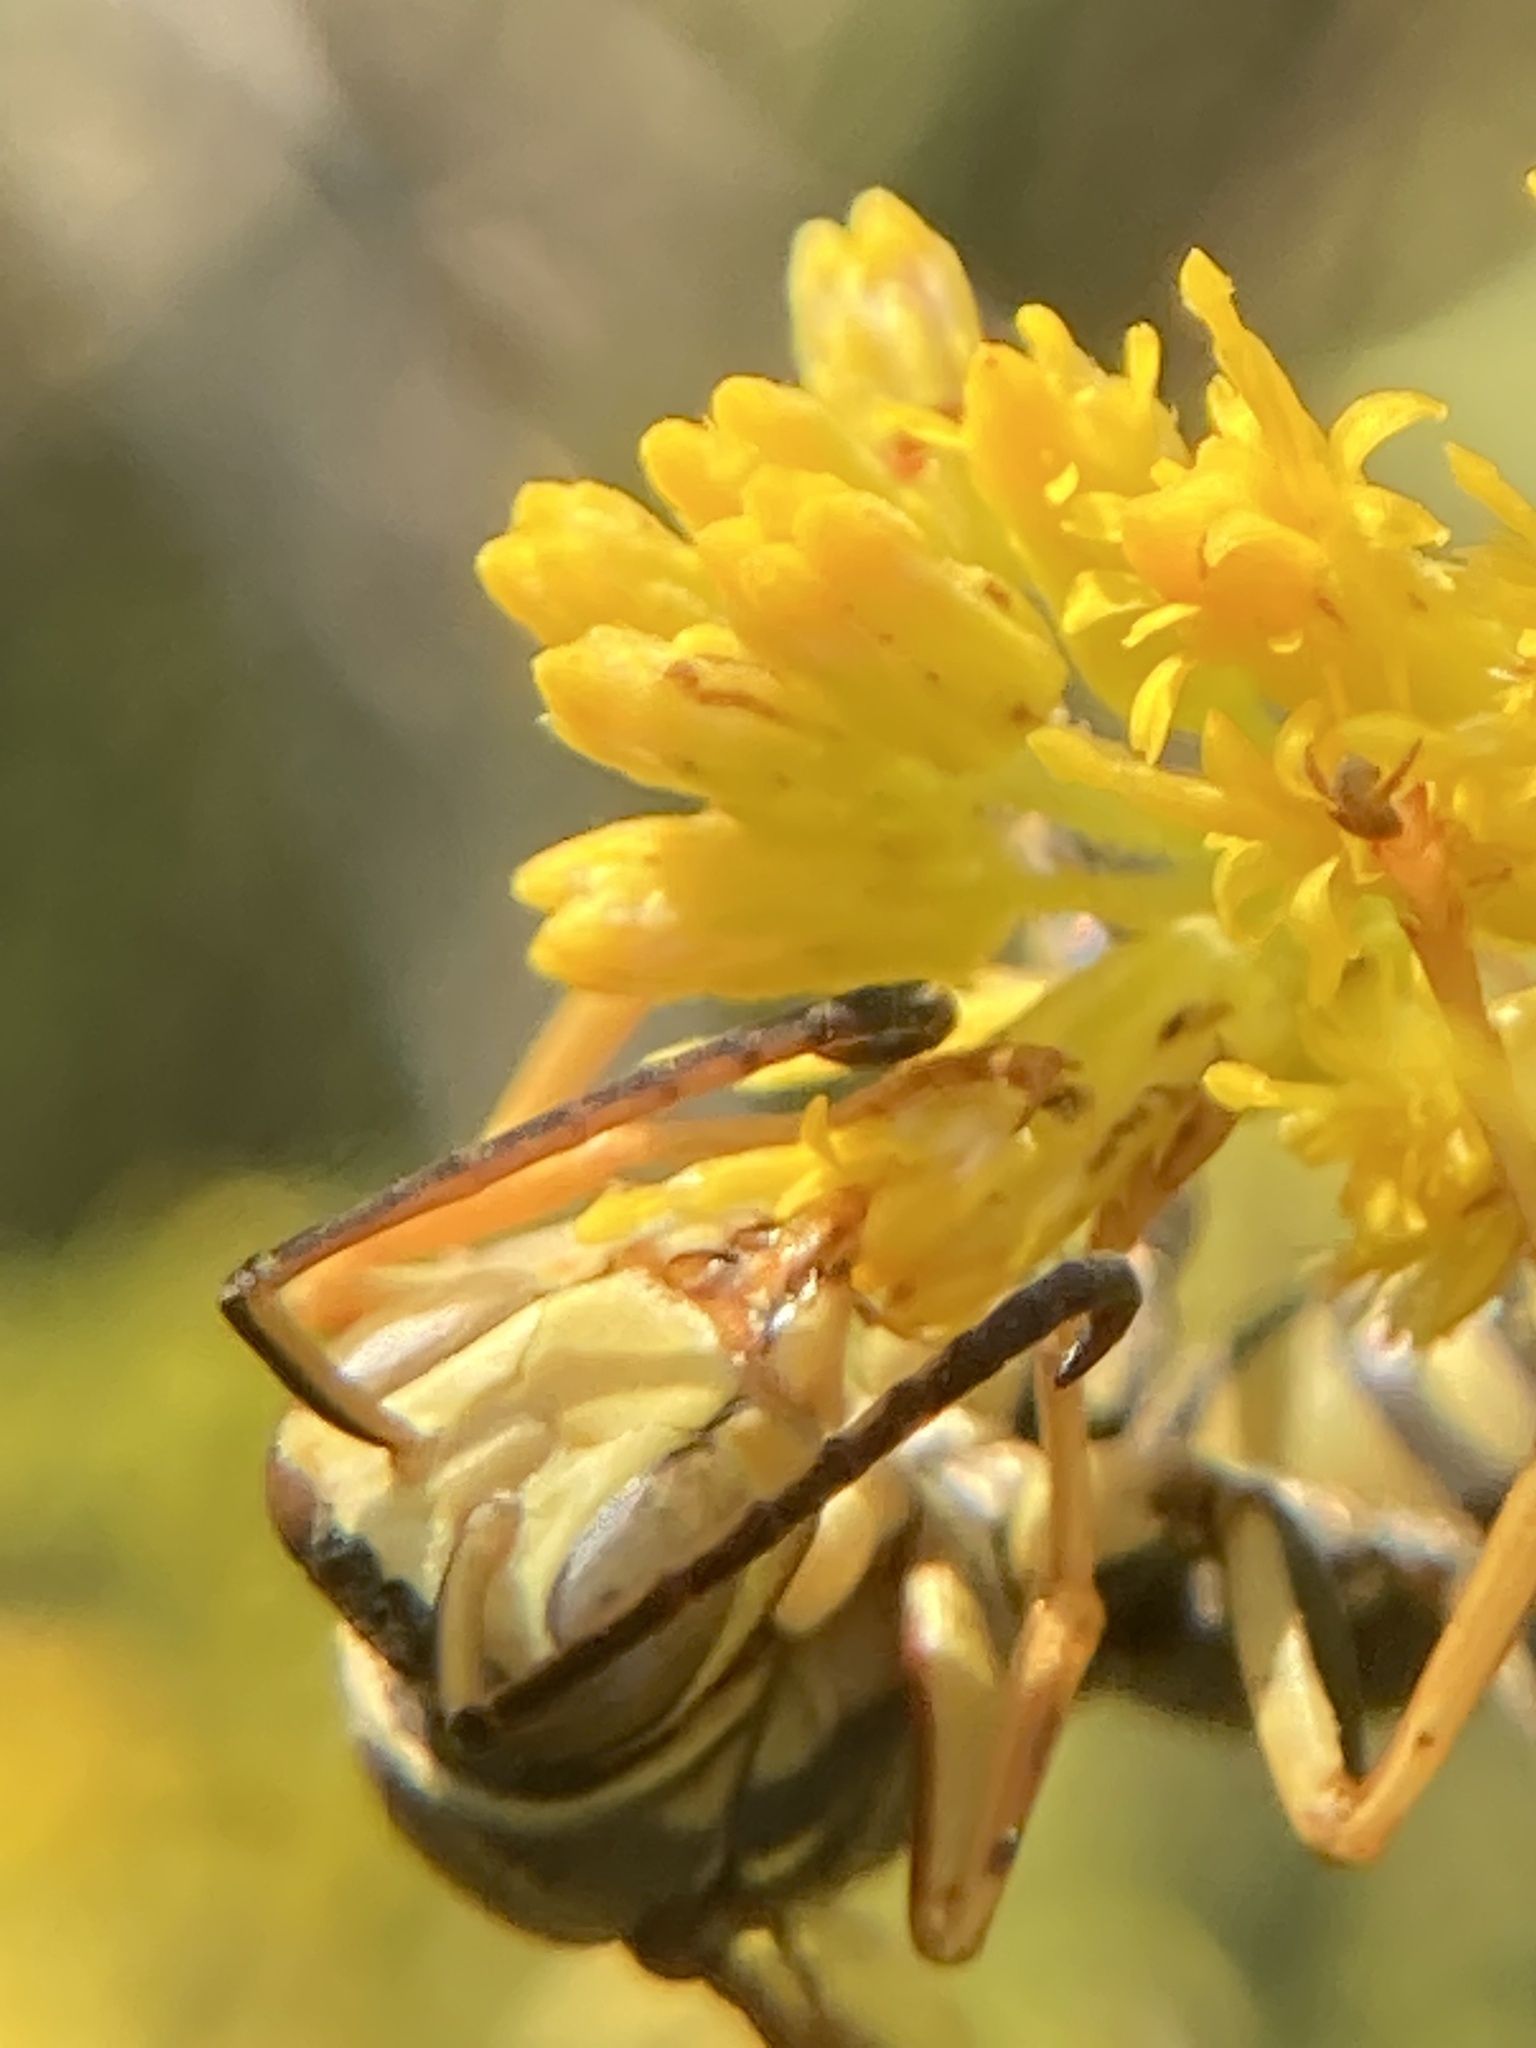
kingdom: Animalia
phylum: Arthropoda
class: Insecta
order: Hymenoptera
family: Eumenidae
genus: Polistes
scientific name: Polistes fuscatus
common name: Dark paper wasp
